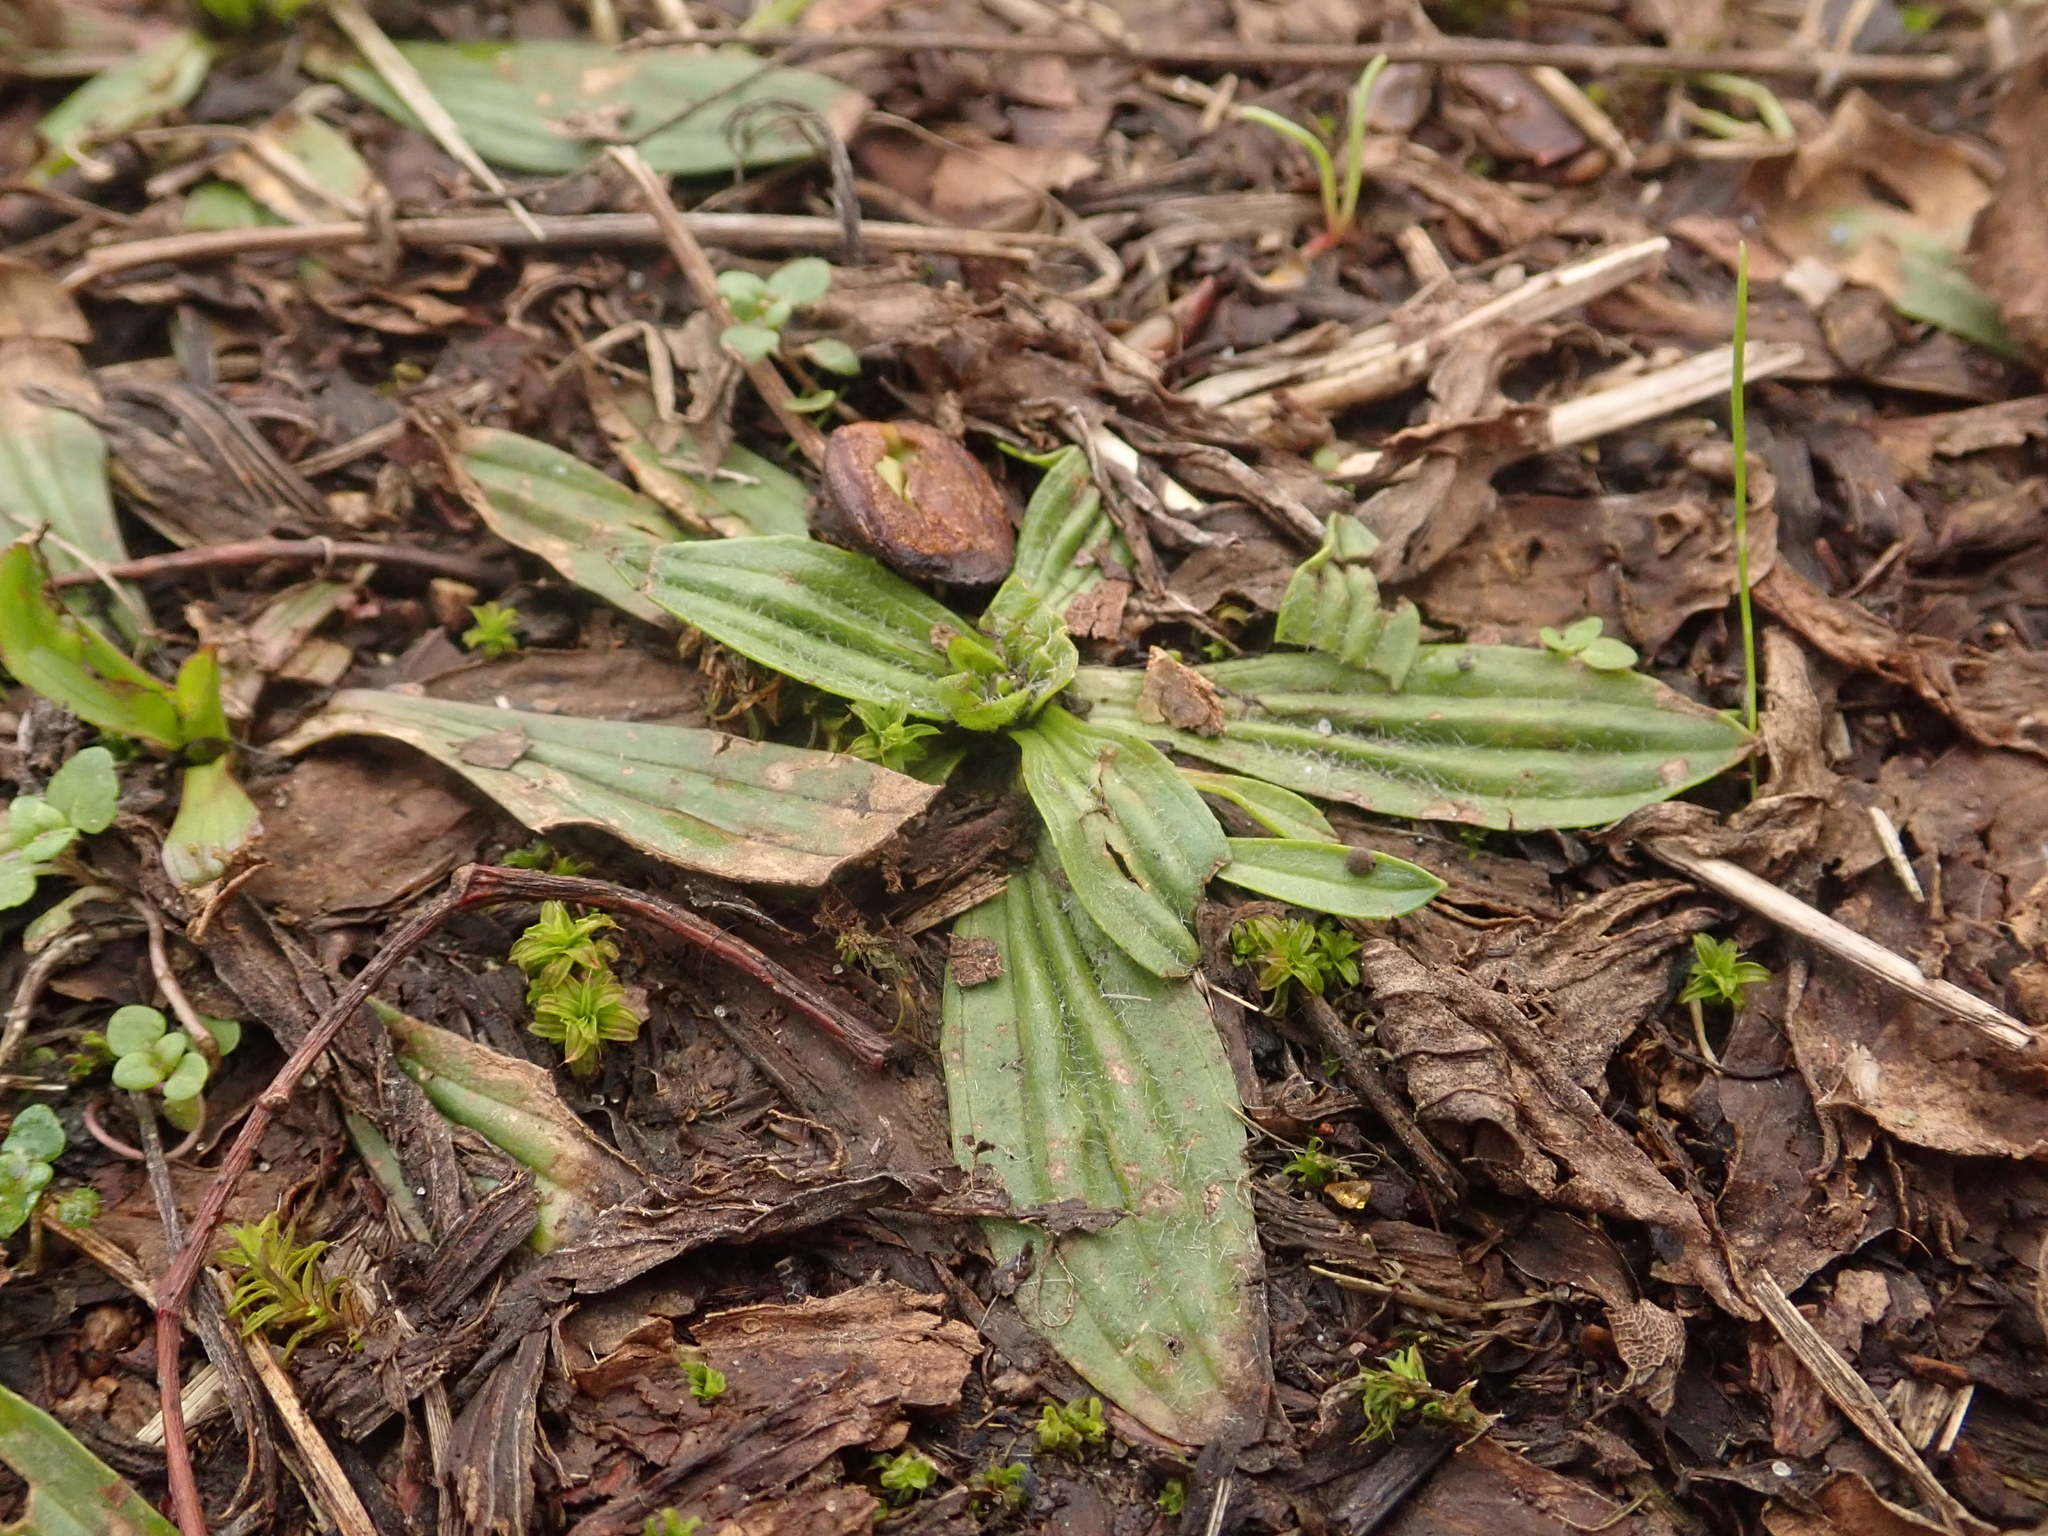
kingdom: Plantae
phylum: Tracheophyta
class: Magnoliopsida
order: Lamiales
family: Plantaginaceae
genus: Plantago
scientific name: Plantago lanceolata
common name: Ribwort plantain
